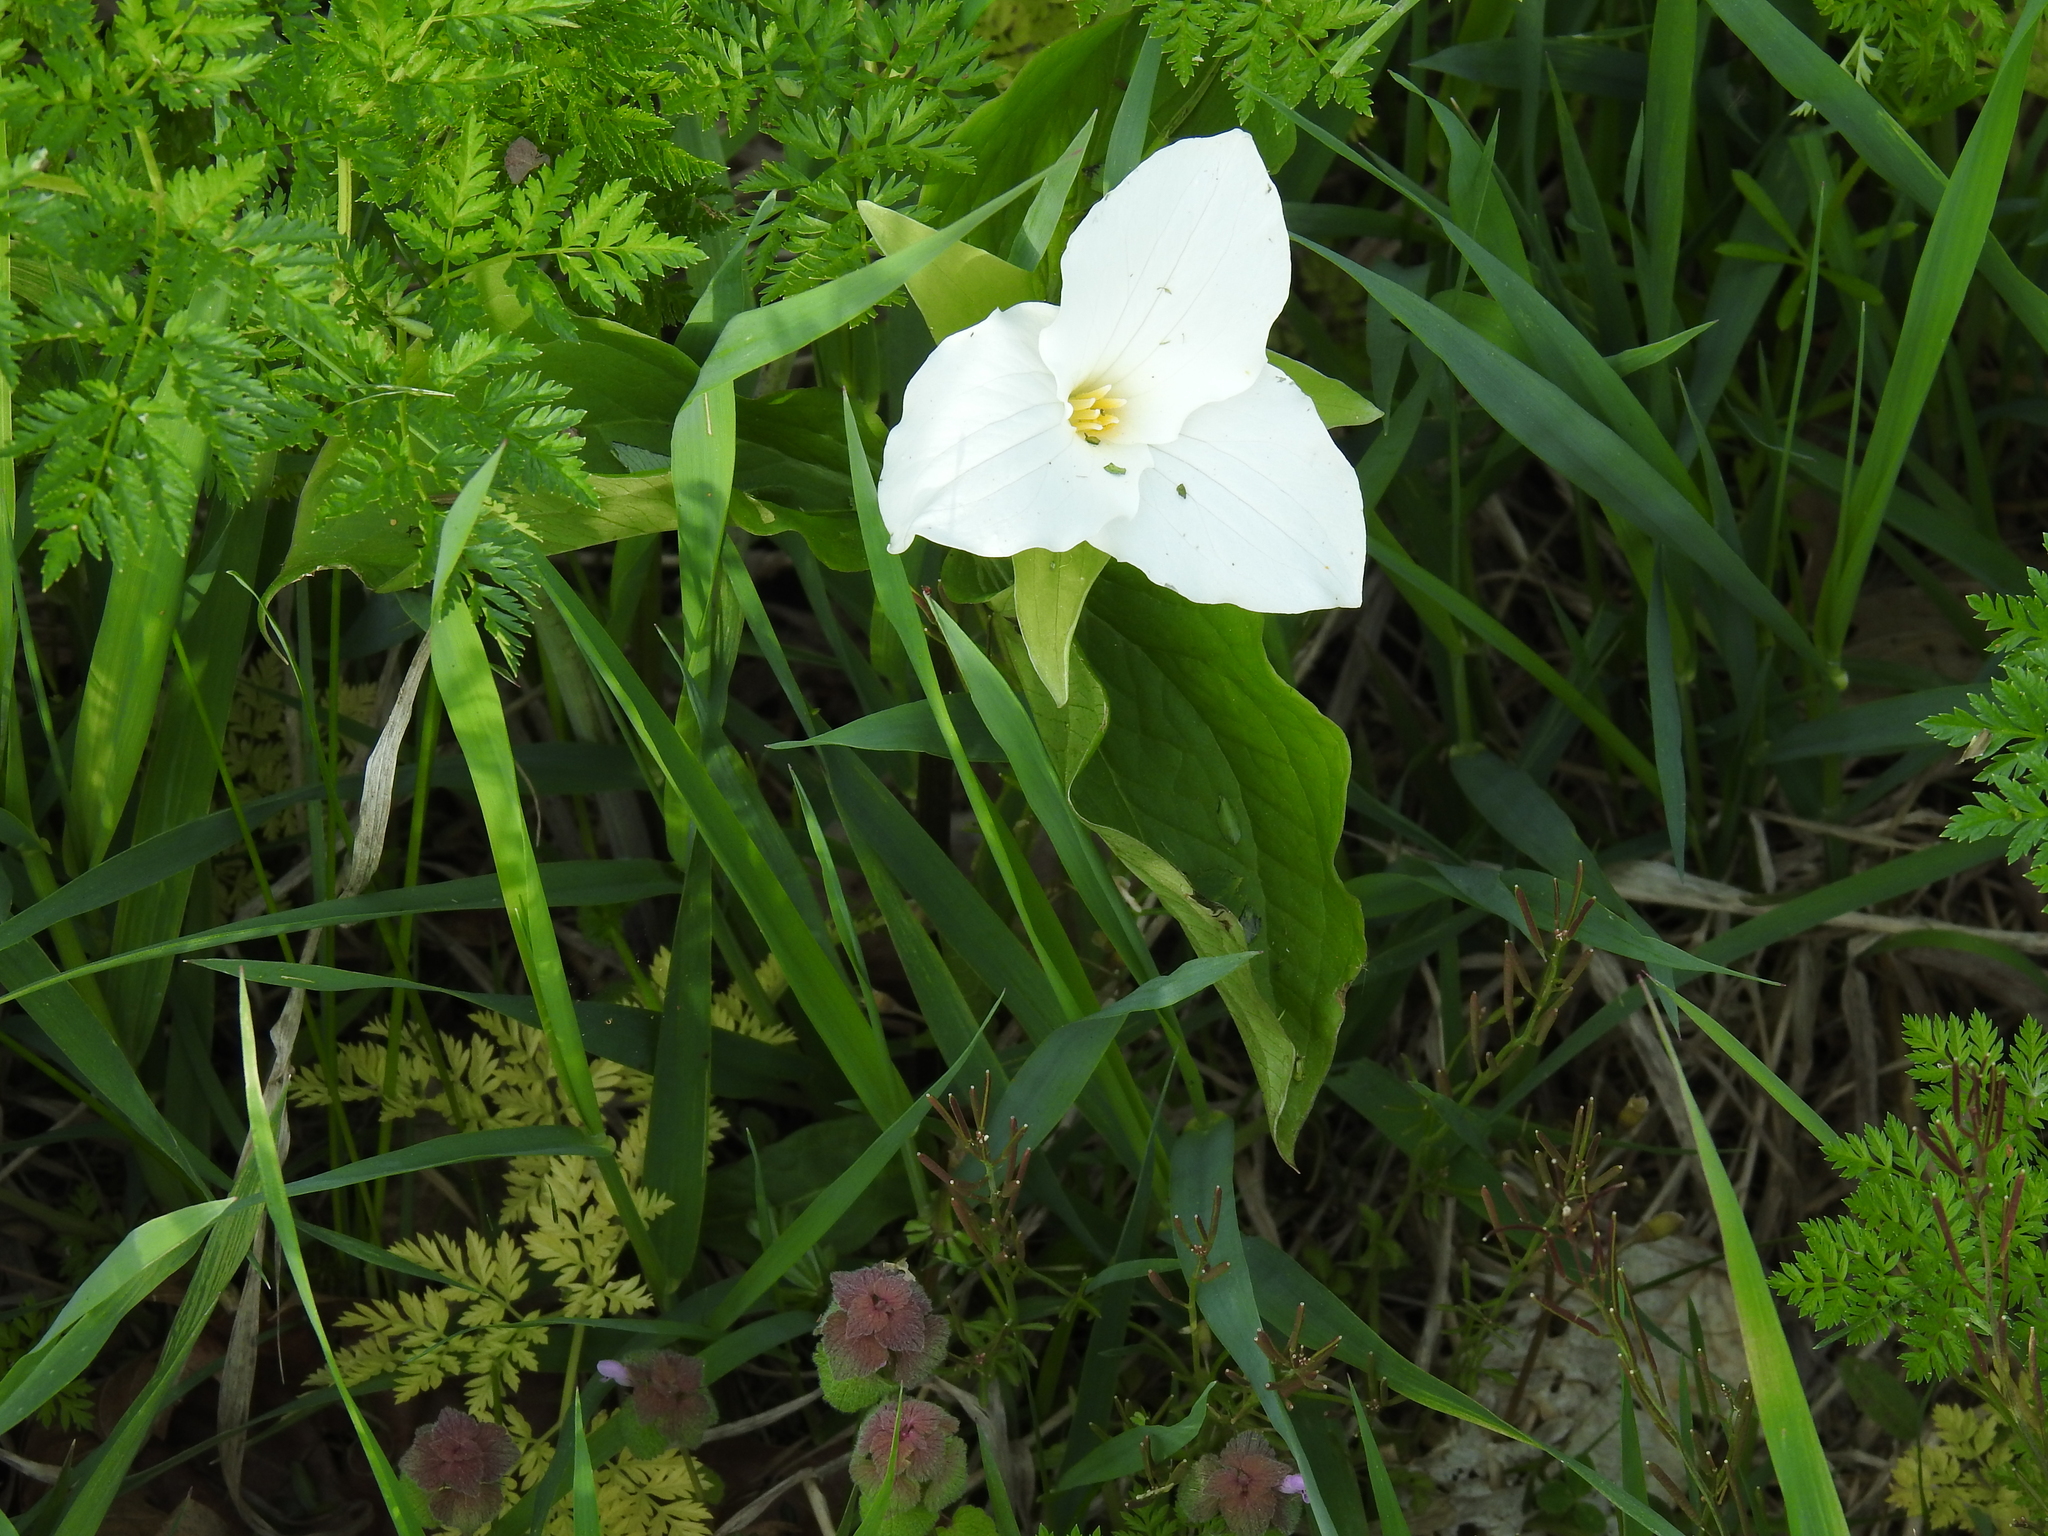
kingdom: Plantae
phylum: Tracheophyta
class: Liliopsida
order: Liliales
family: Melanthiaceae
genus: Trillium
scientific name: Trillium grandiflorum
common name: Great white trillium
